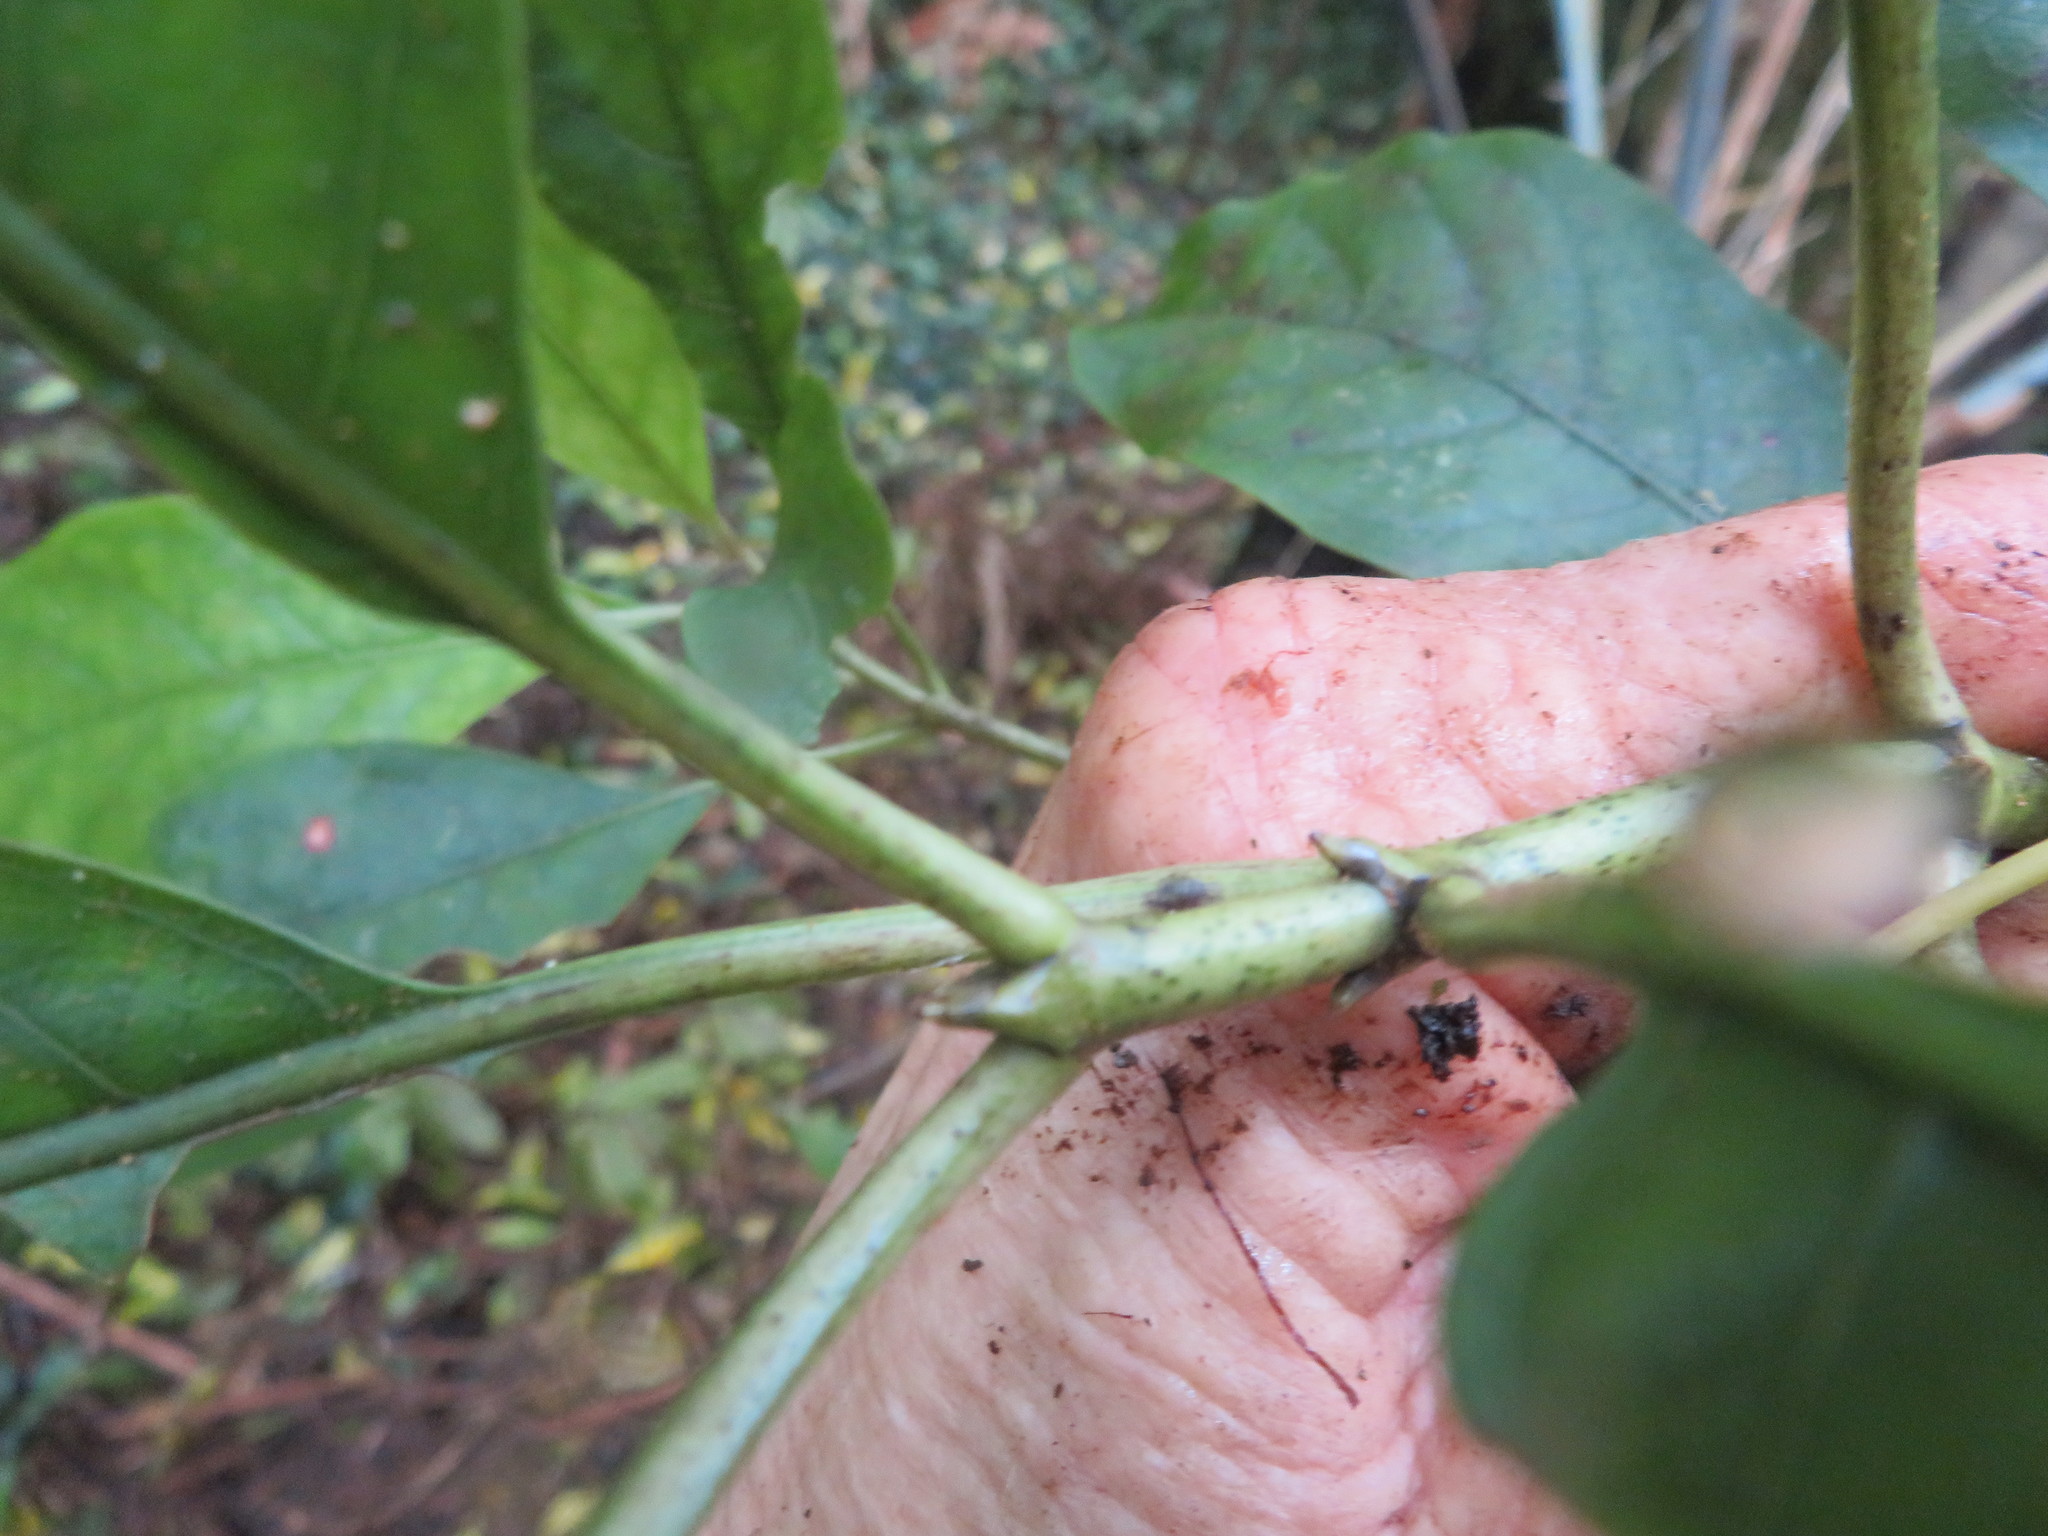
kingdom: Plantae
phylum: Tracheophyta
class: Magnoliopsida
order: Gentianales
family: Rubiaceae
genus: Coprosma
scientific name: Coprosma autumnalis
